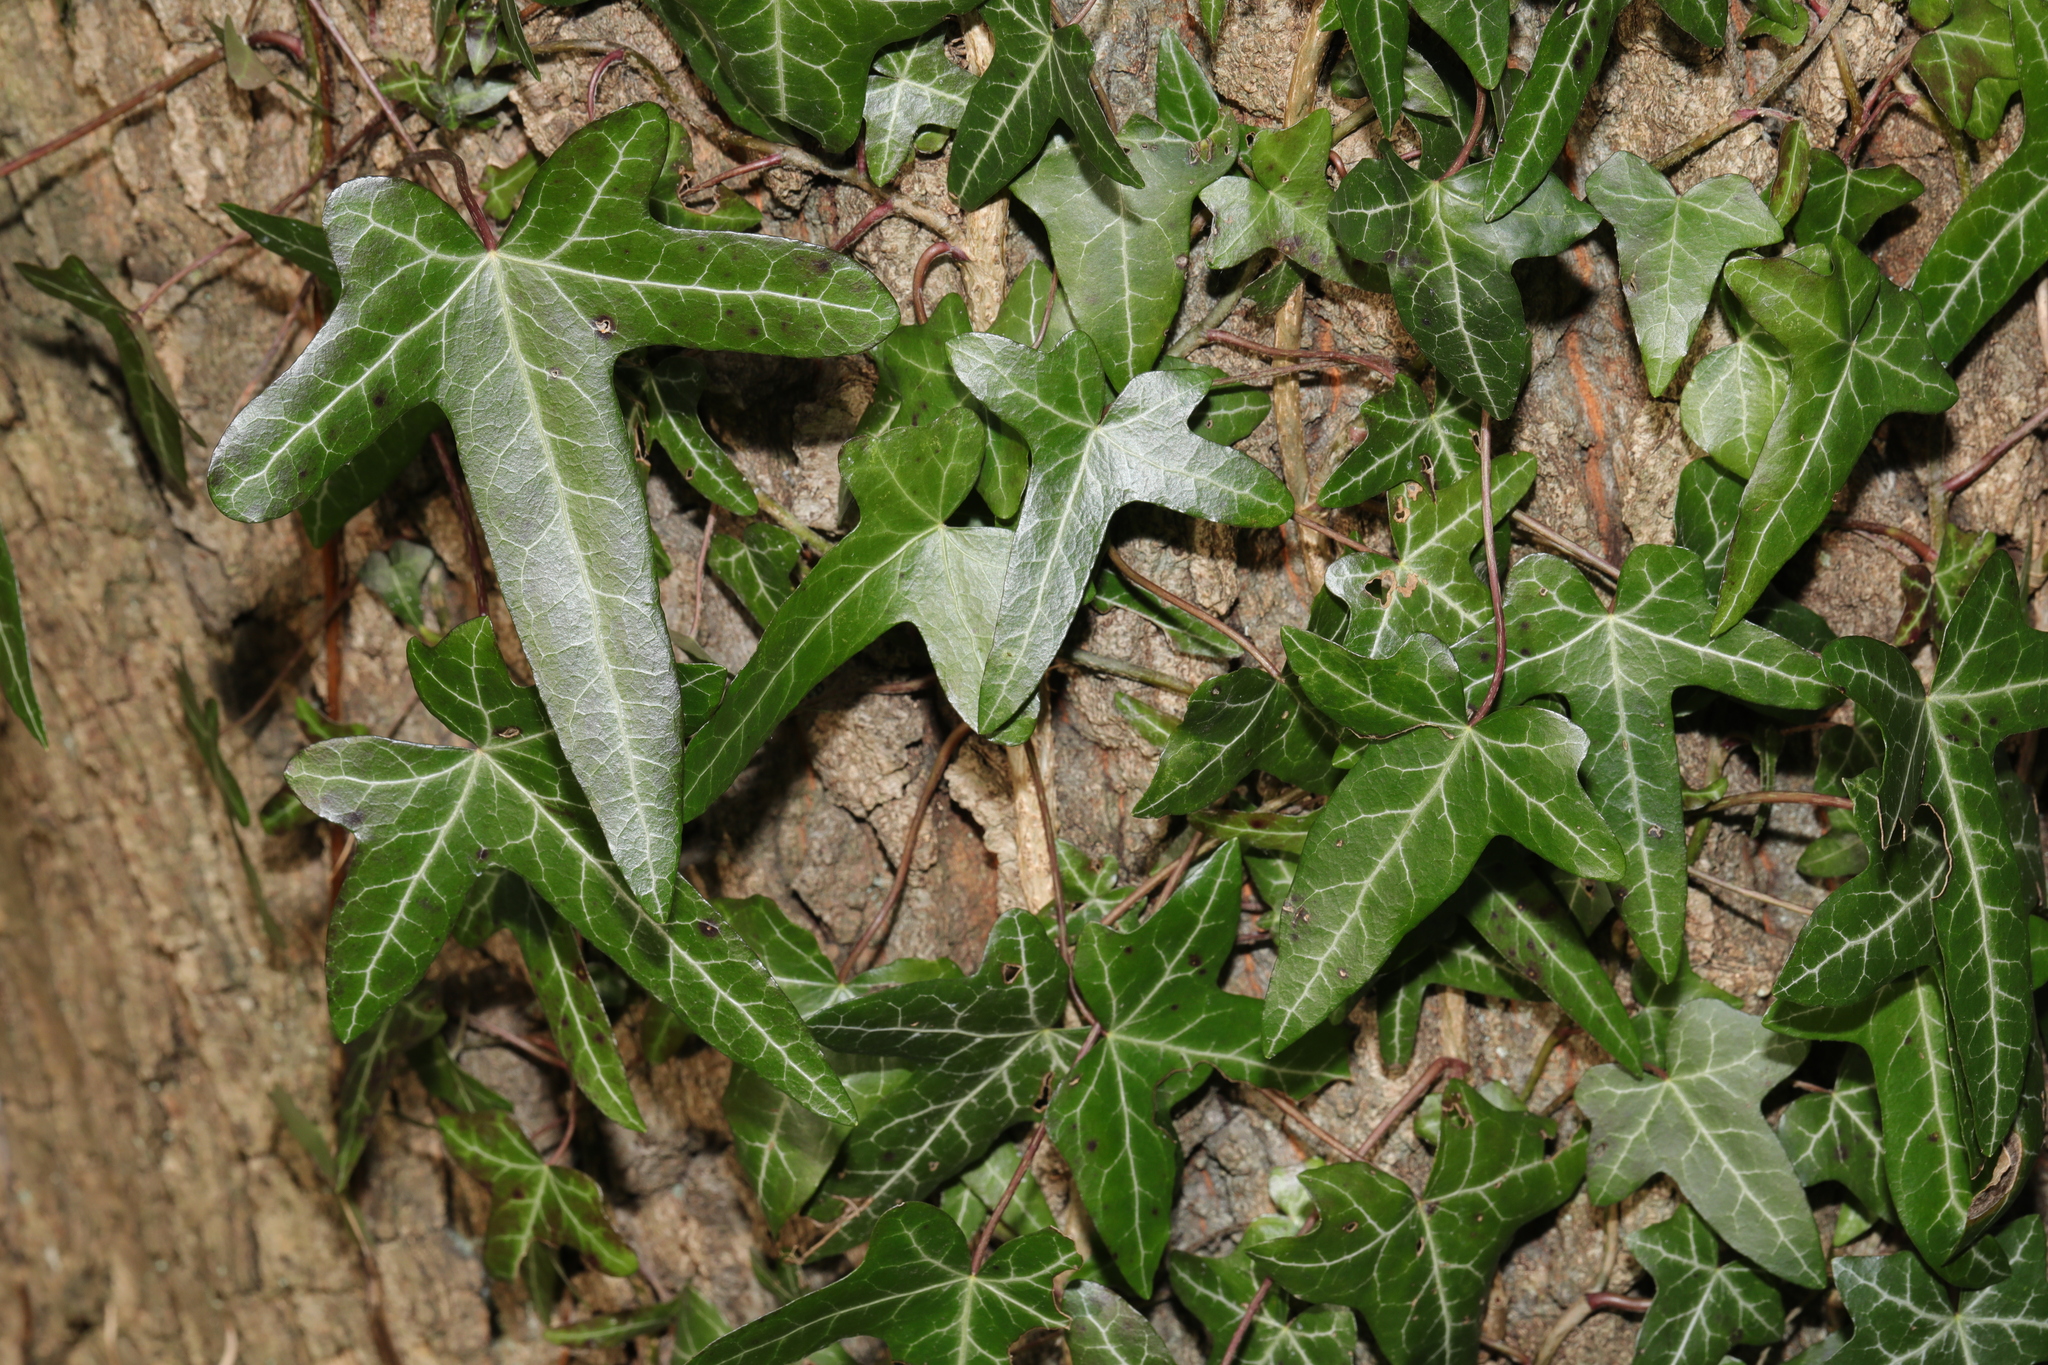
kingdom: Plantae
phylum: Tracheophyta
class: Magnoliopsida
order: Apiales
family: Araliaceae
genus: Hedera
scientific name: Hedera helix
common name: Ivy
